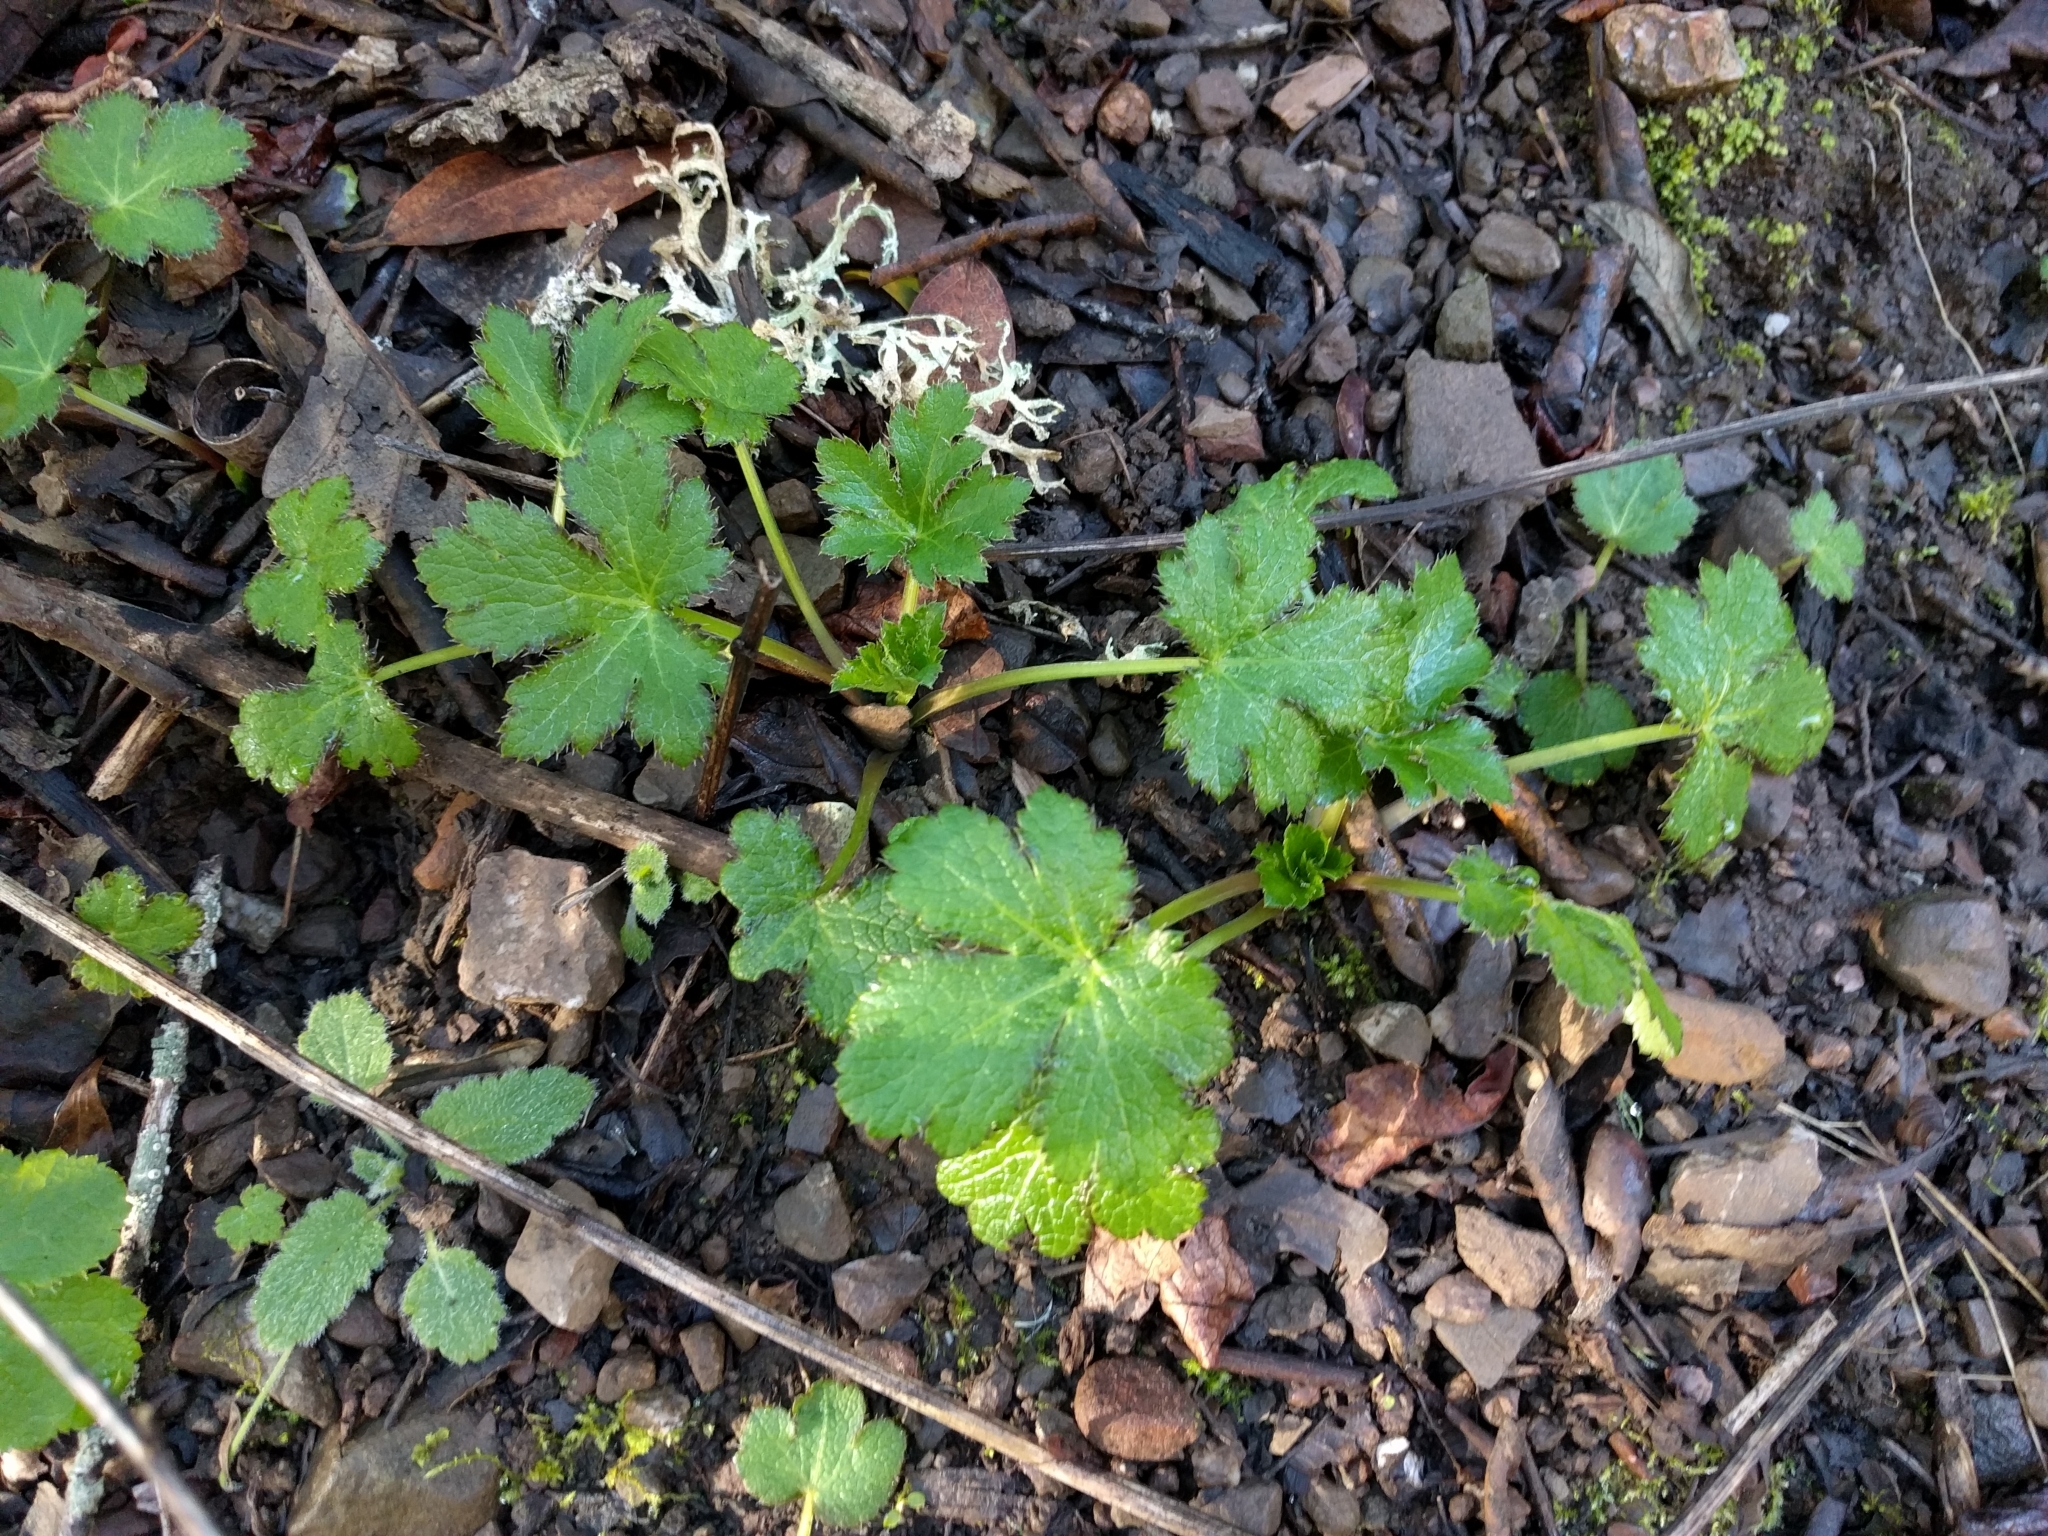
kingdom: Plantae
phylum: Tracheophyta
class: Magnoliopsida
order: Apiales
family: Apiaceae
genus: Sanicula
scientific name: Sanicula crassicaulis
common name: Western snakeroot
